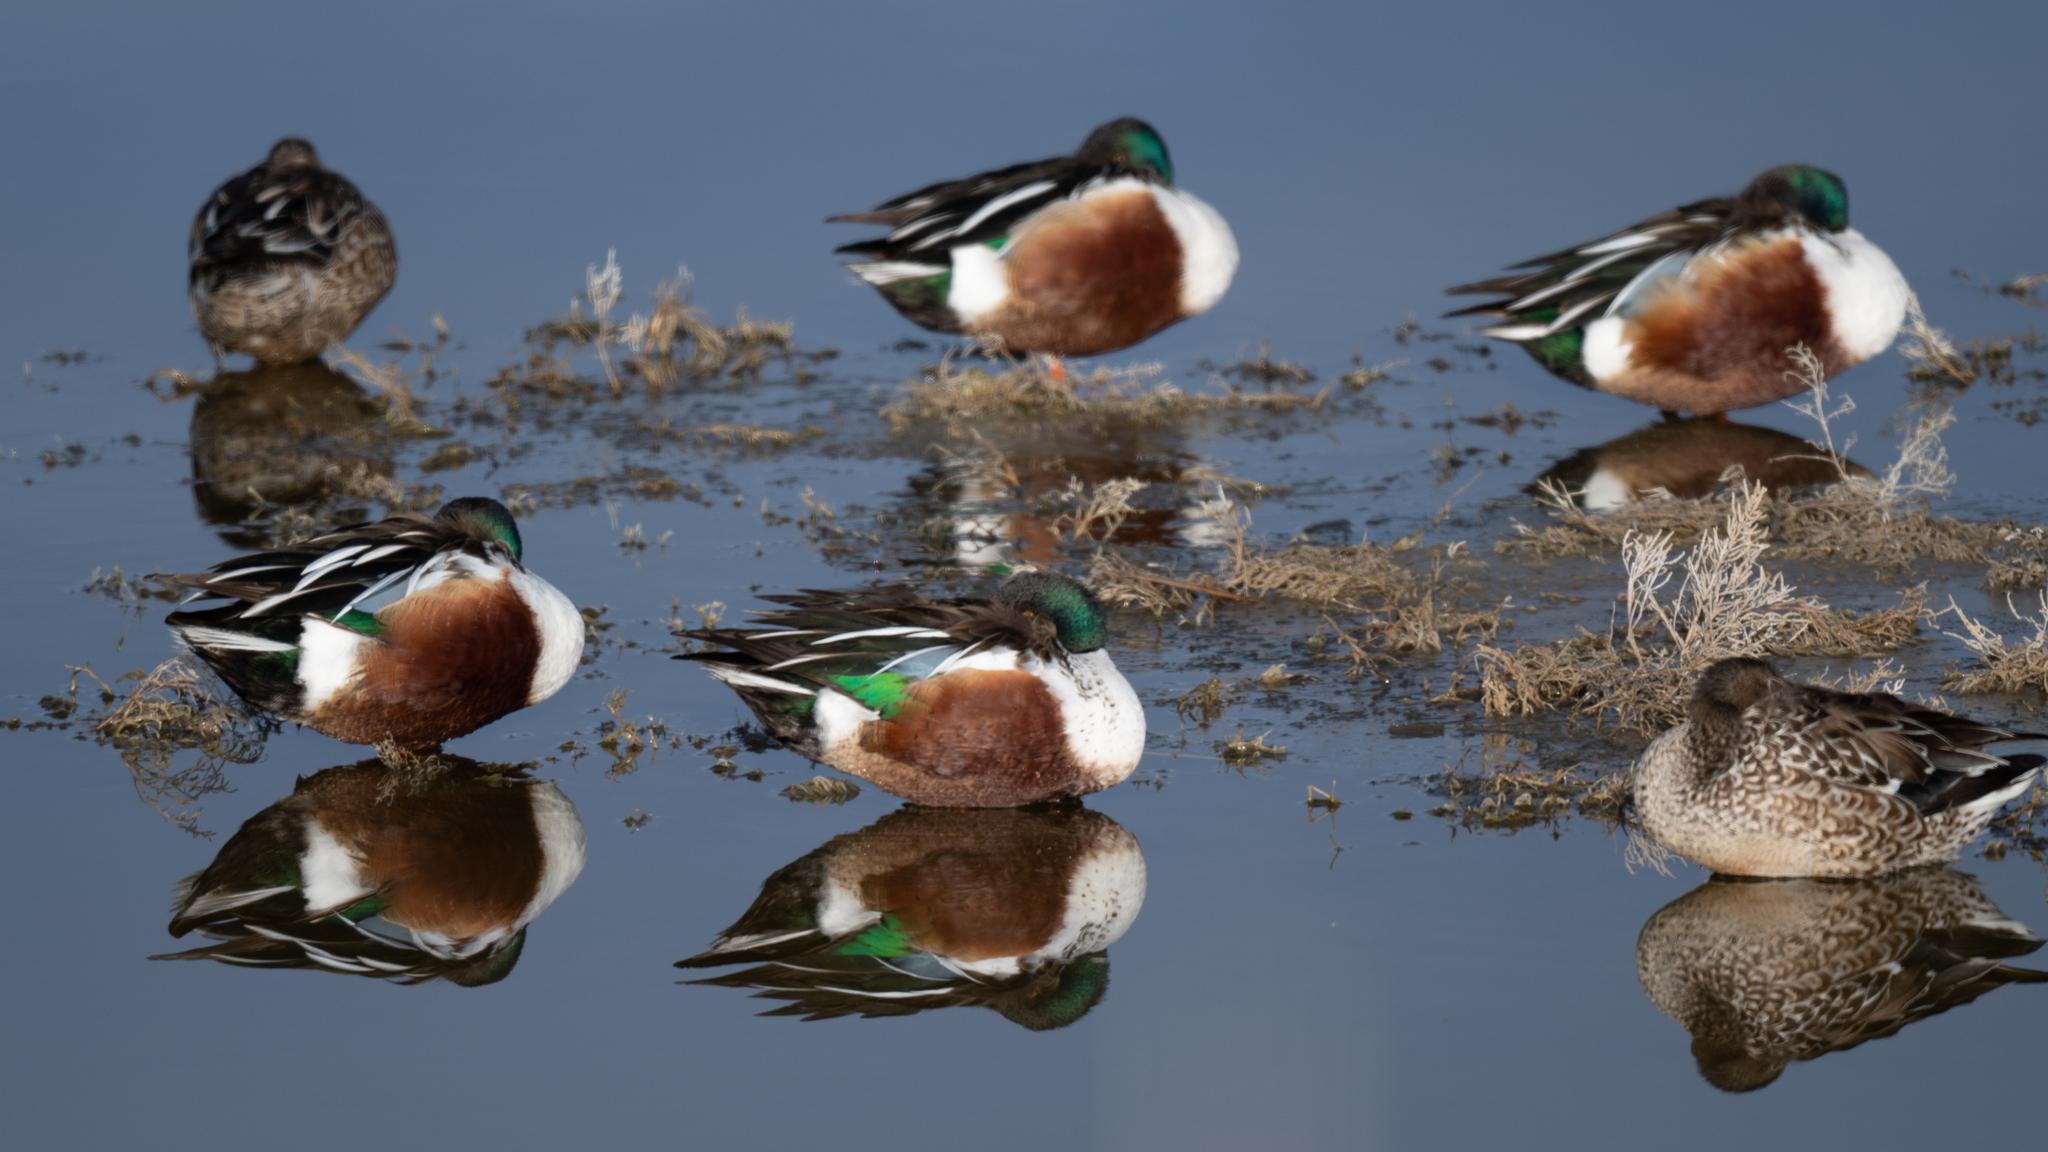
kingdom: Animalia
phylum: Chordata
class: Aves
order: Anseriformes
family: Anatidae
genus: Spatula
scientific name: Spatula clypeata
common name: Northern shoveler
